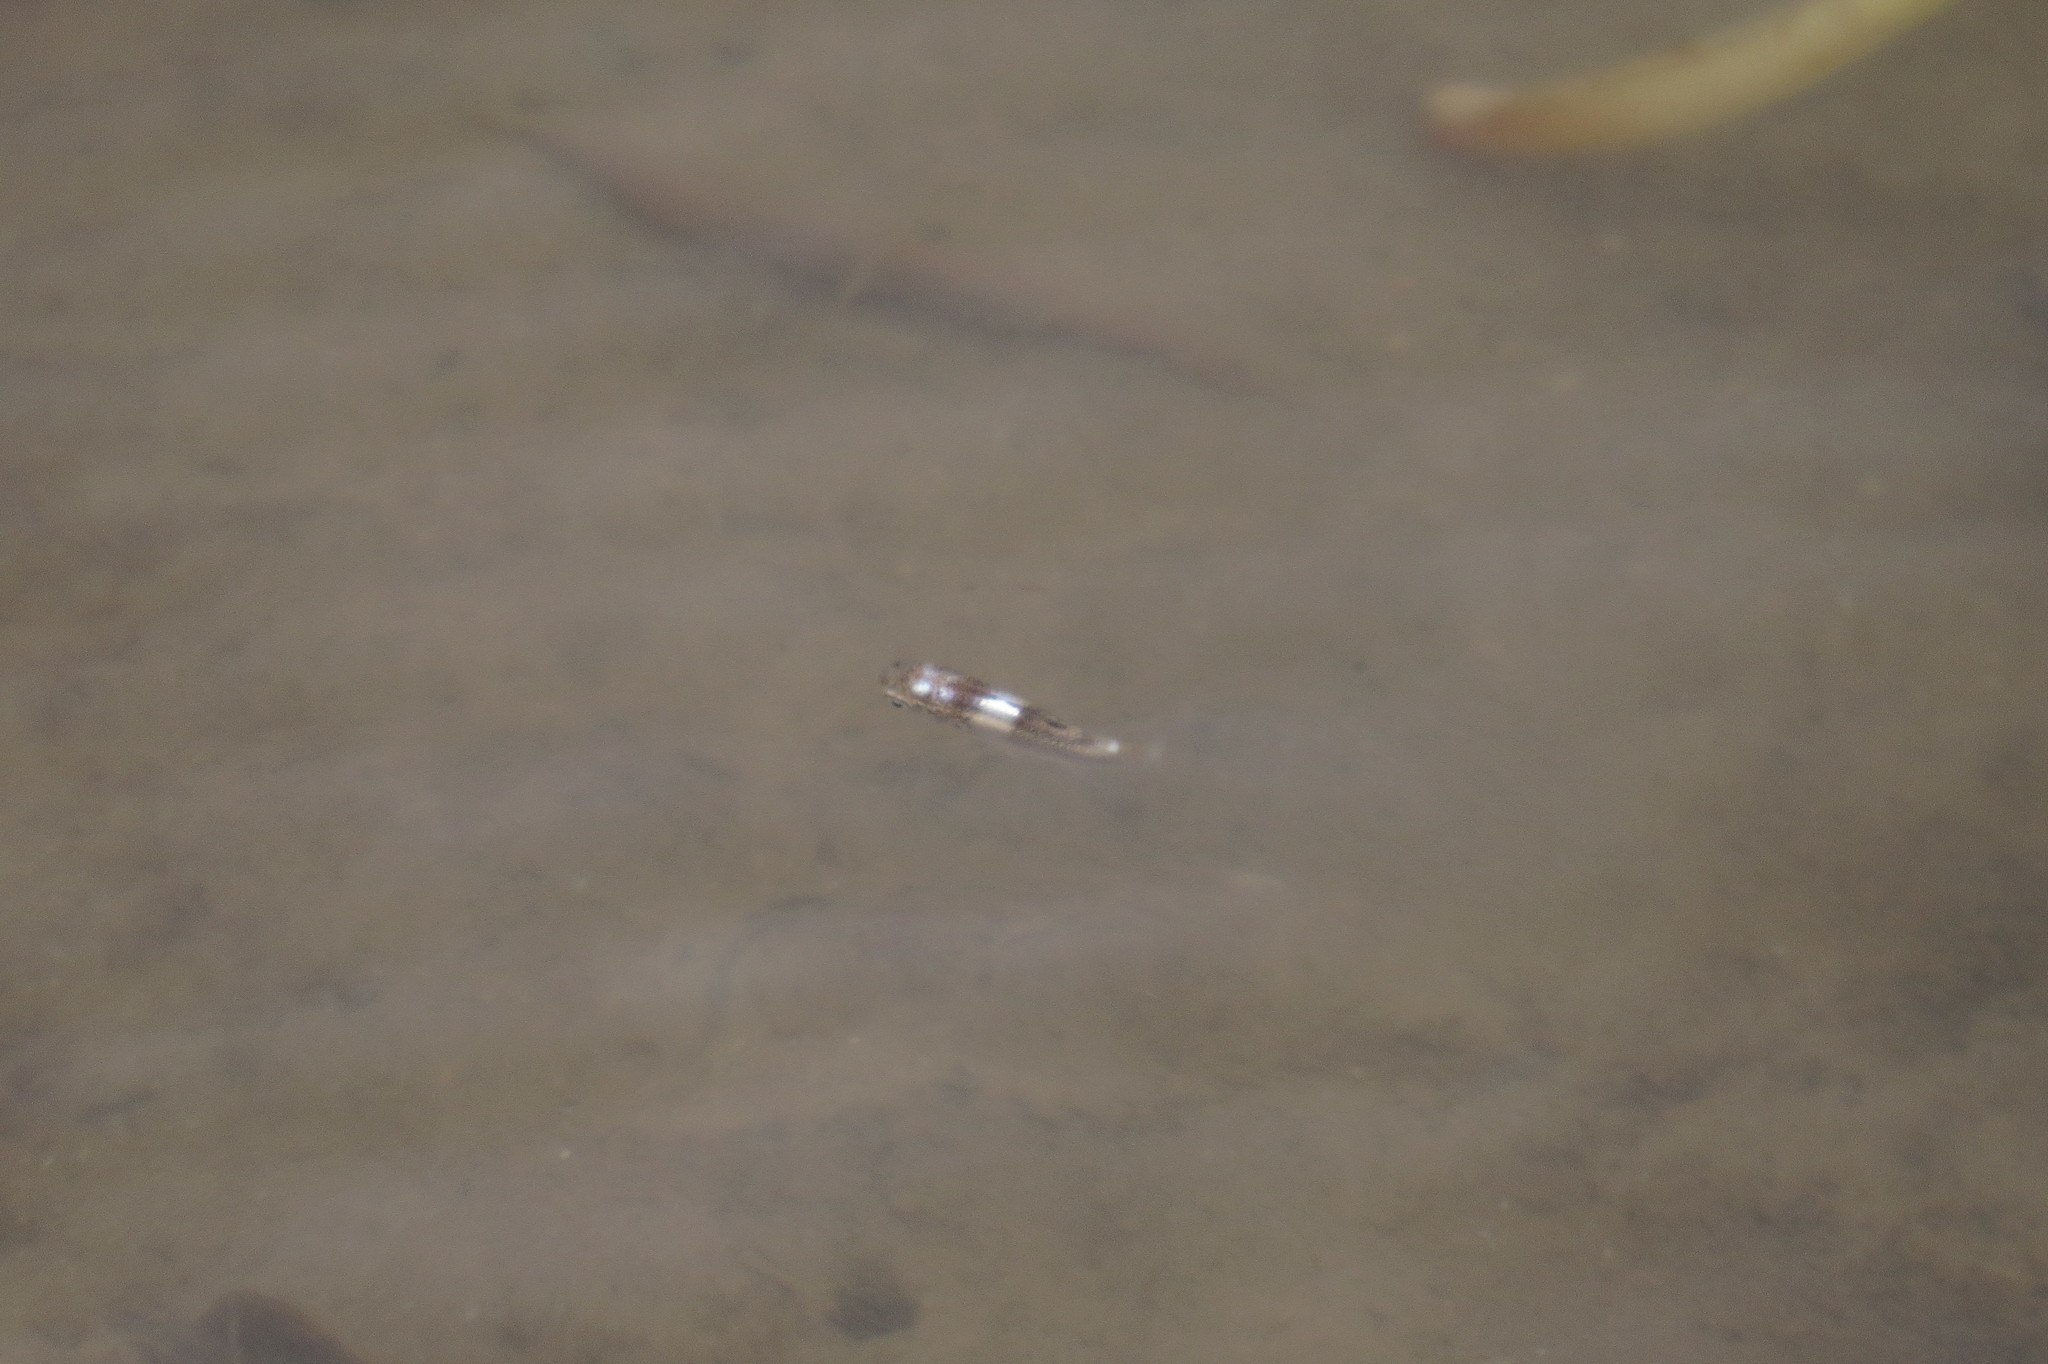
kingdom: Animalia
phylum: Chordata
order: Mugiliformes
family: Mugilidae
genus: Ellochelon
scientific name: Ellochelon vaigiensis
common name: Squaretail mullet
